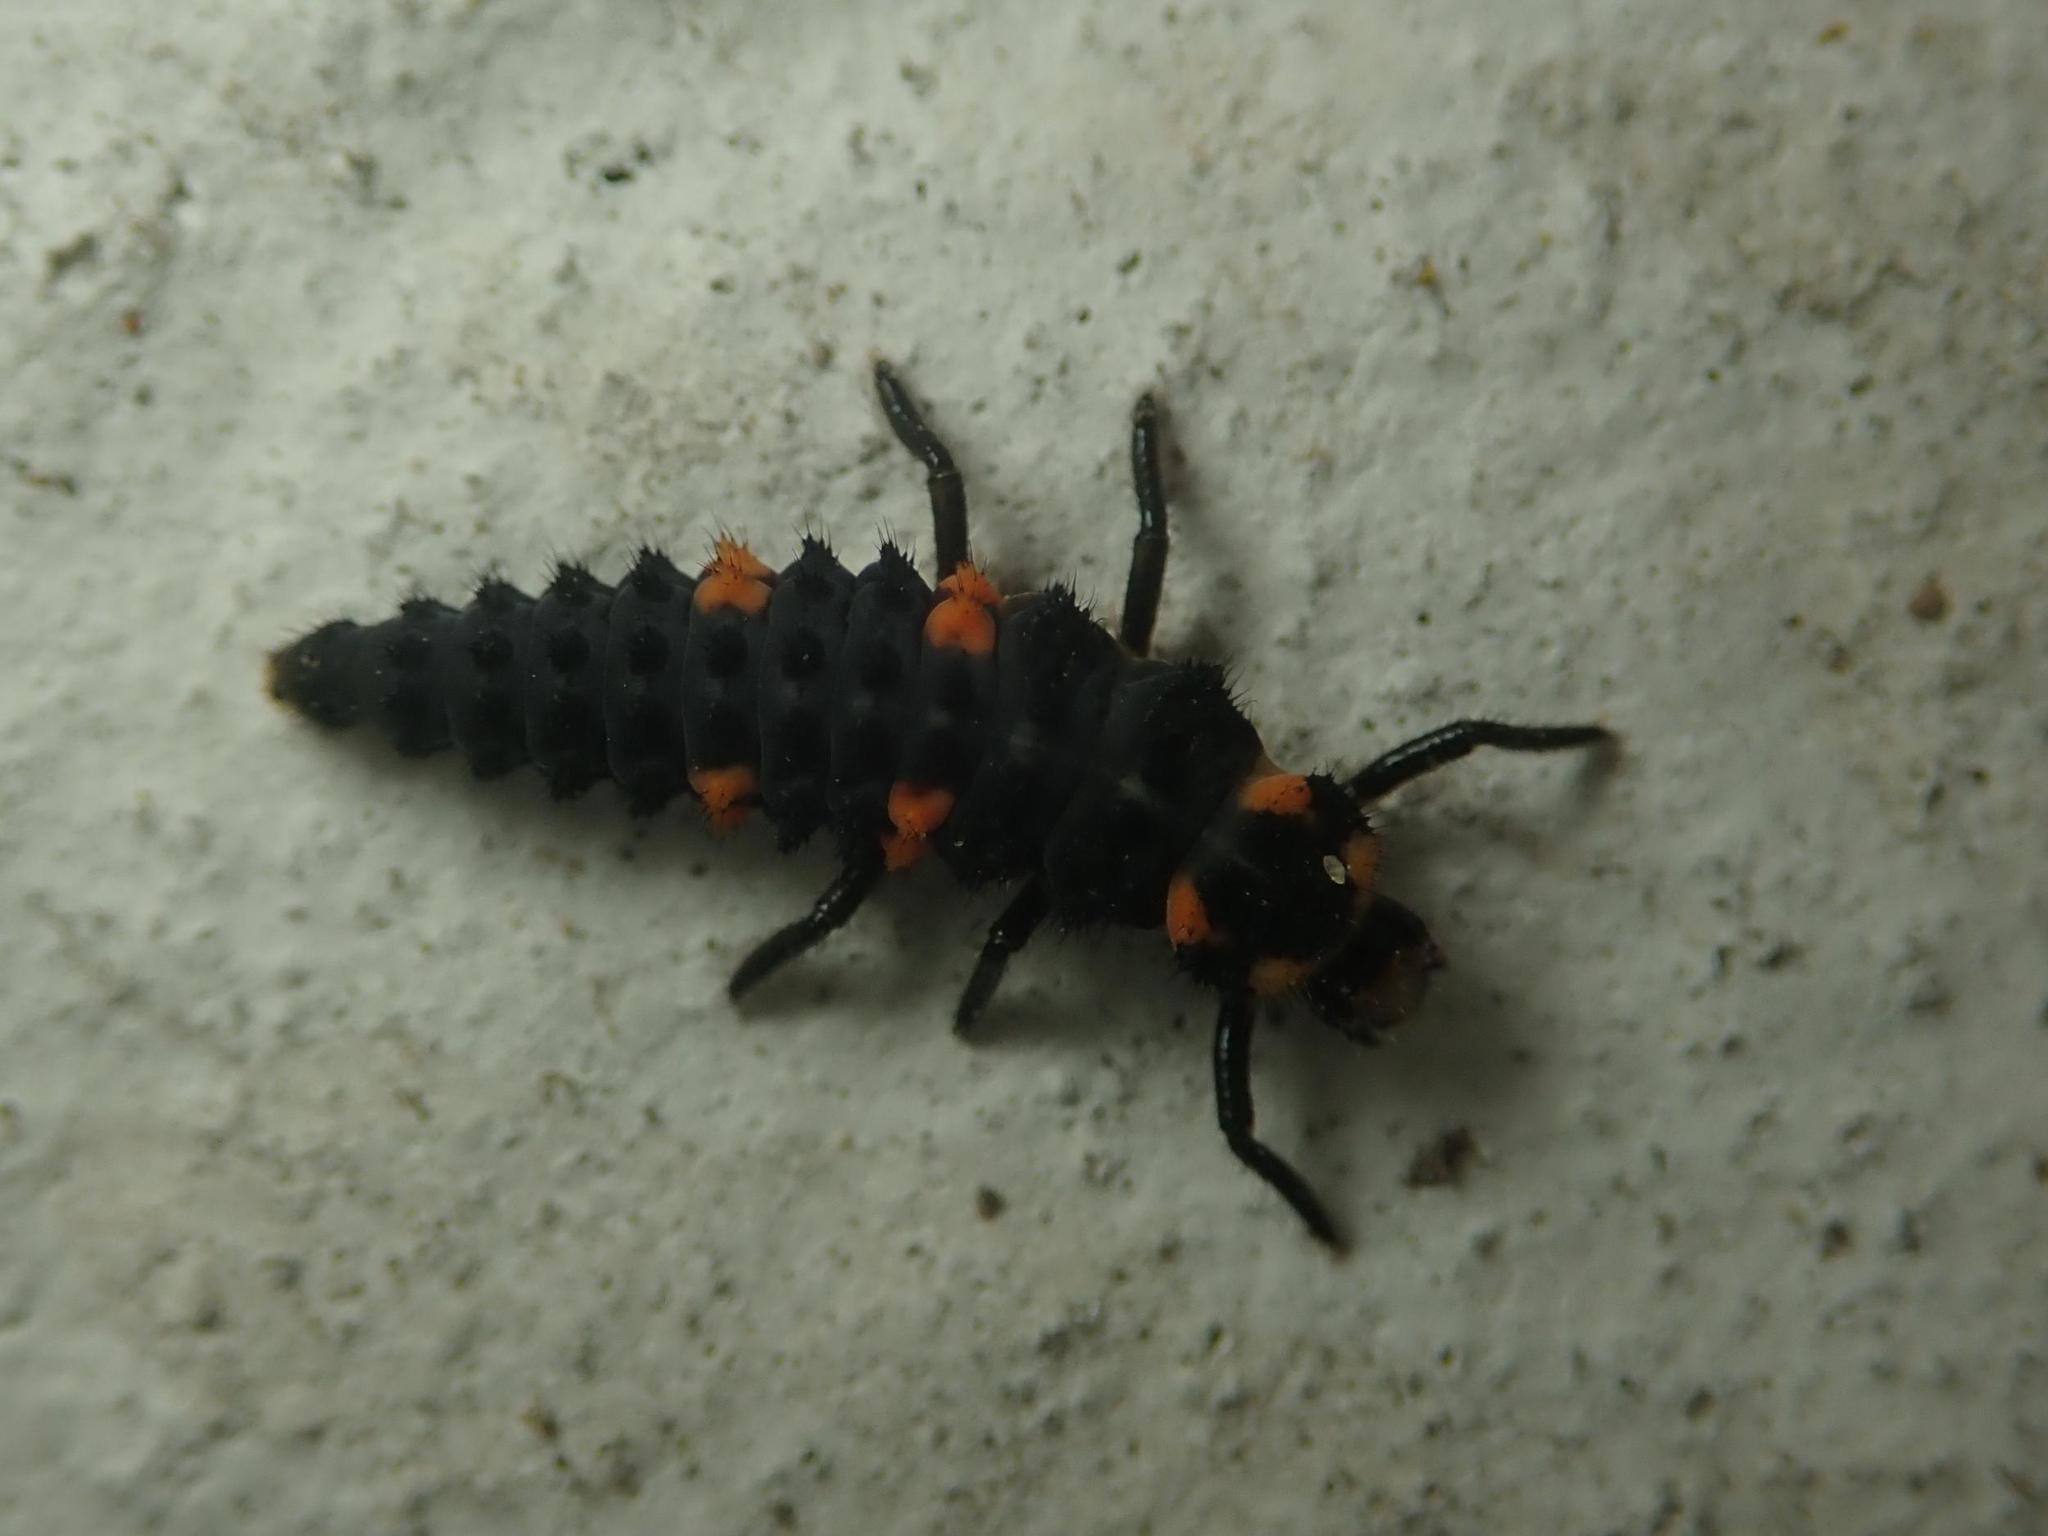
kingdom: Animalia
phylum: Arthropoda
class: Insecta
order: Coleoptera
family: Coccinellidae
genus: Coccinella
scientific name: Coccinella septempunctata
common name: Sevenspotted lady beetle
